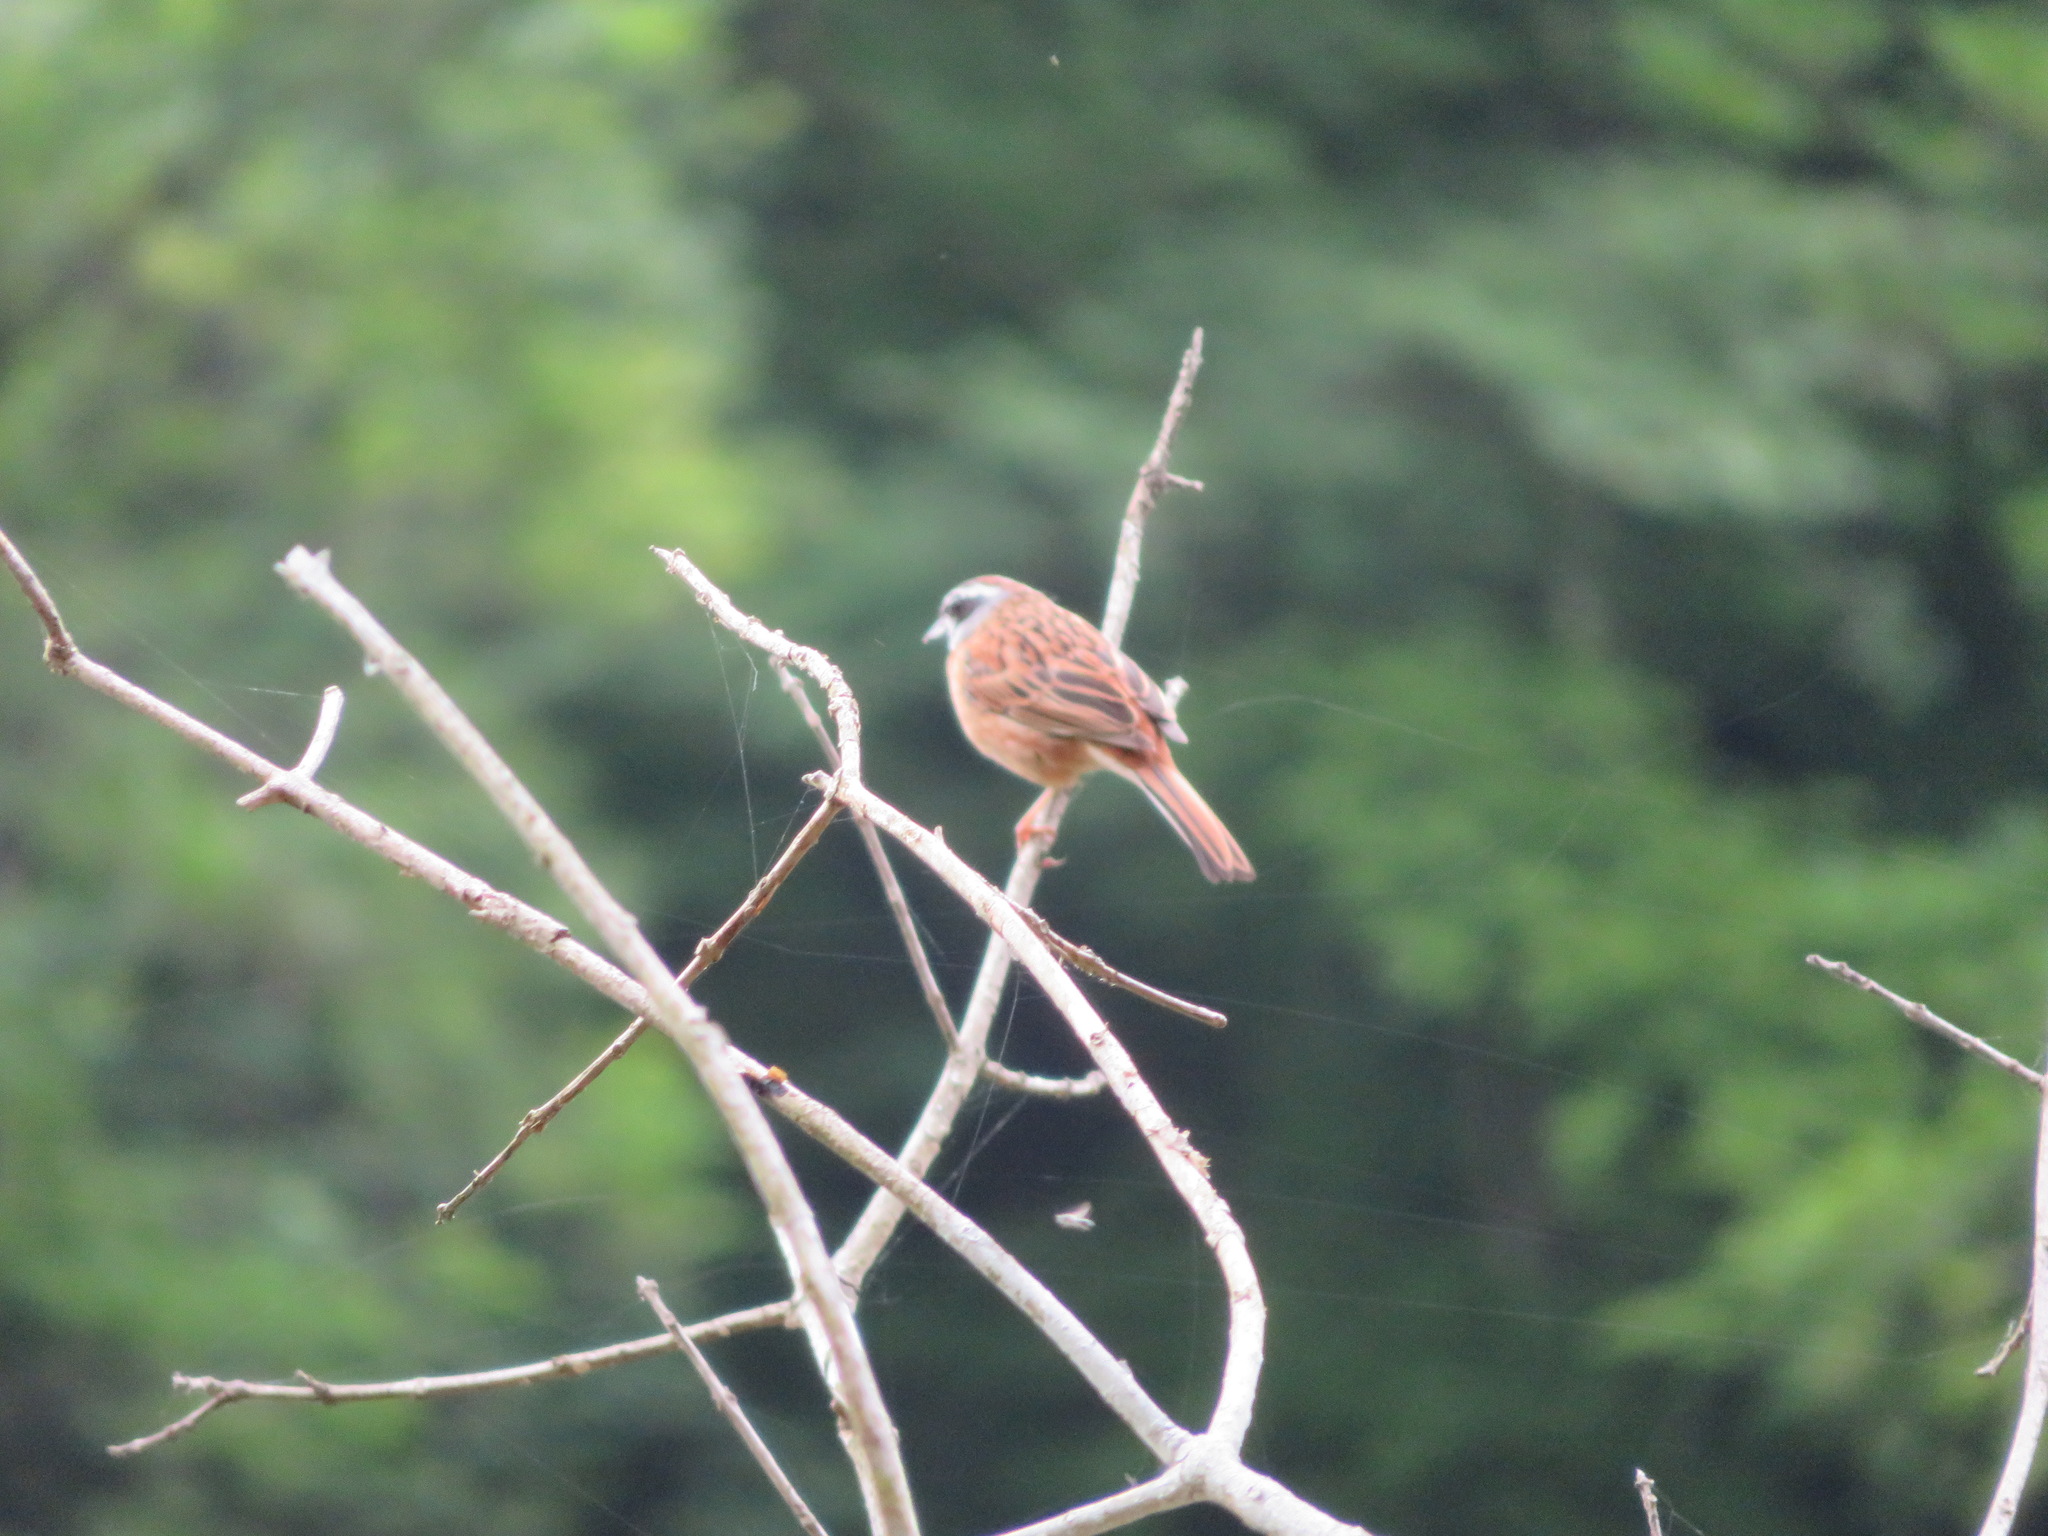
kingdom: Animalia
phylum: Chordata
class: Aves
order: Passeriformes
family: Emberizidae
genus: Emberiza
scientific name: Emberiza cioides
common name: Meadow bunting
